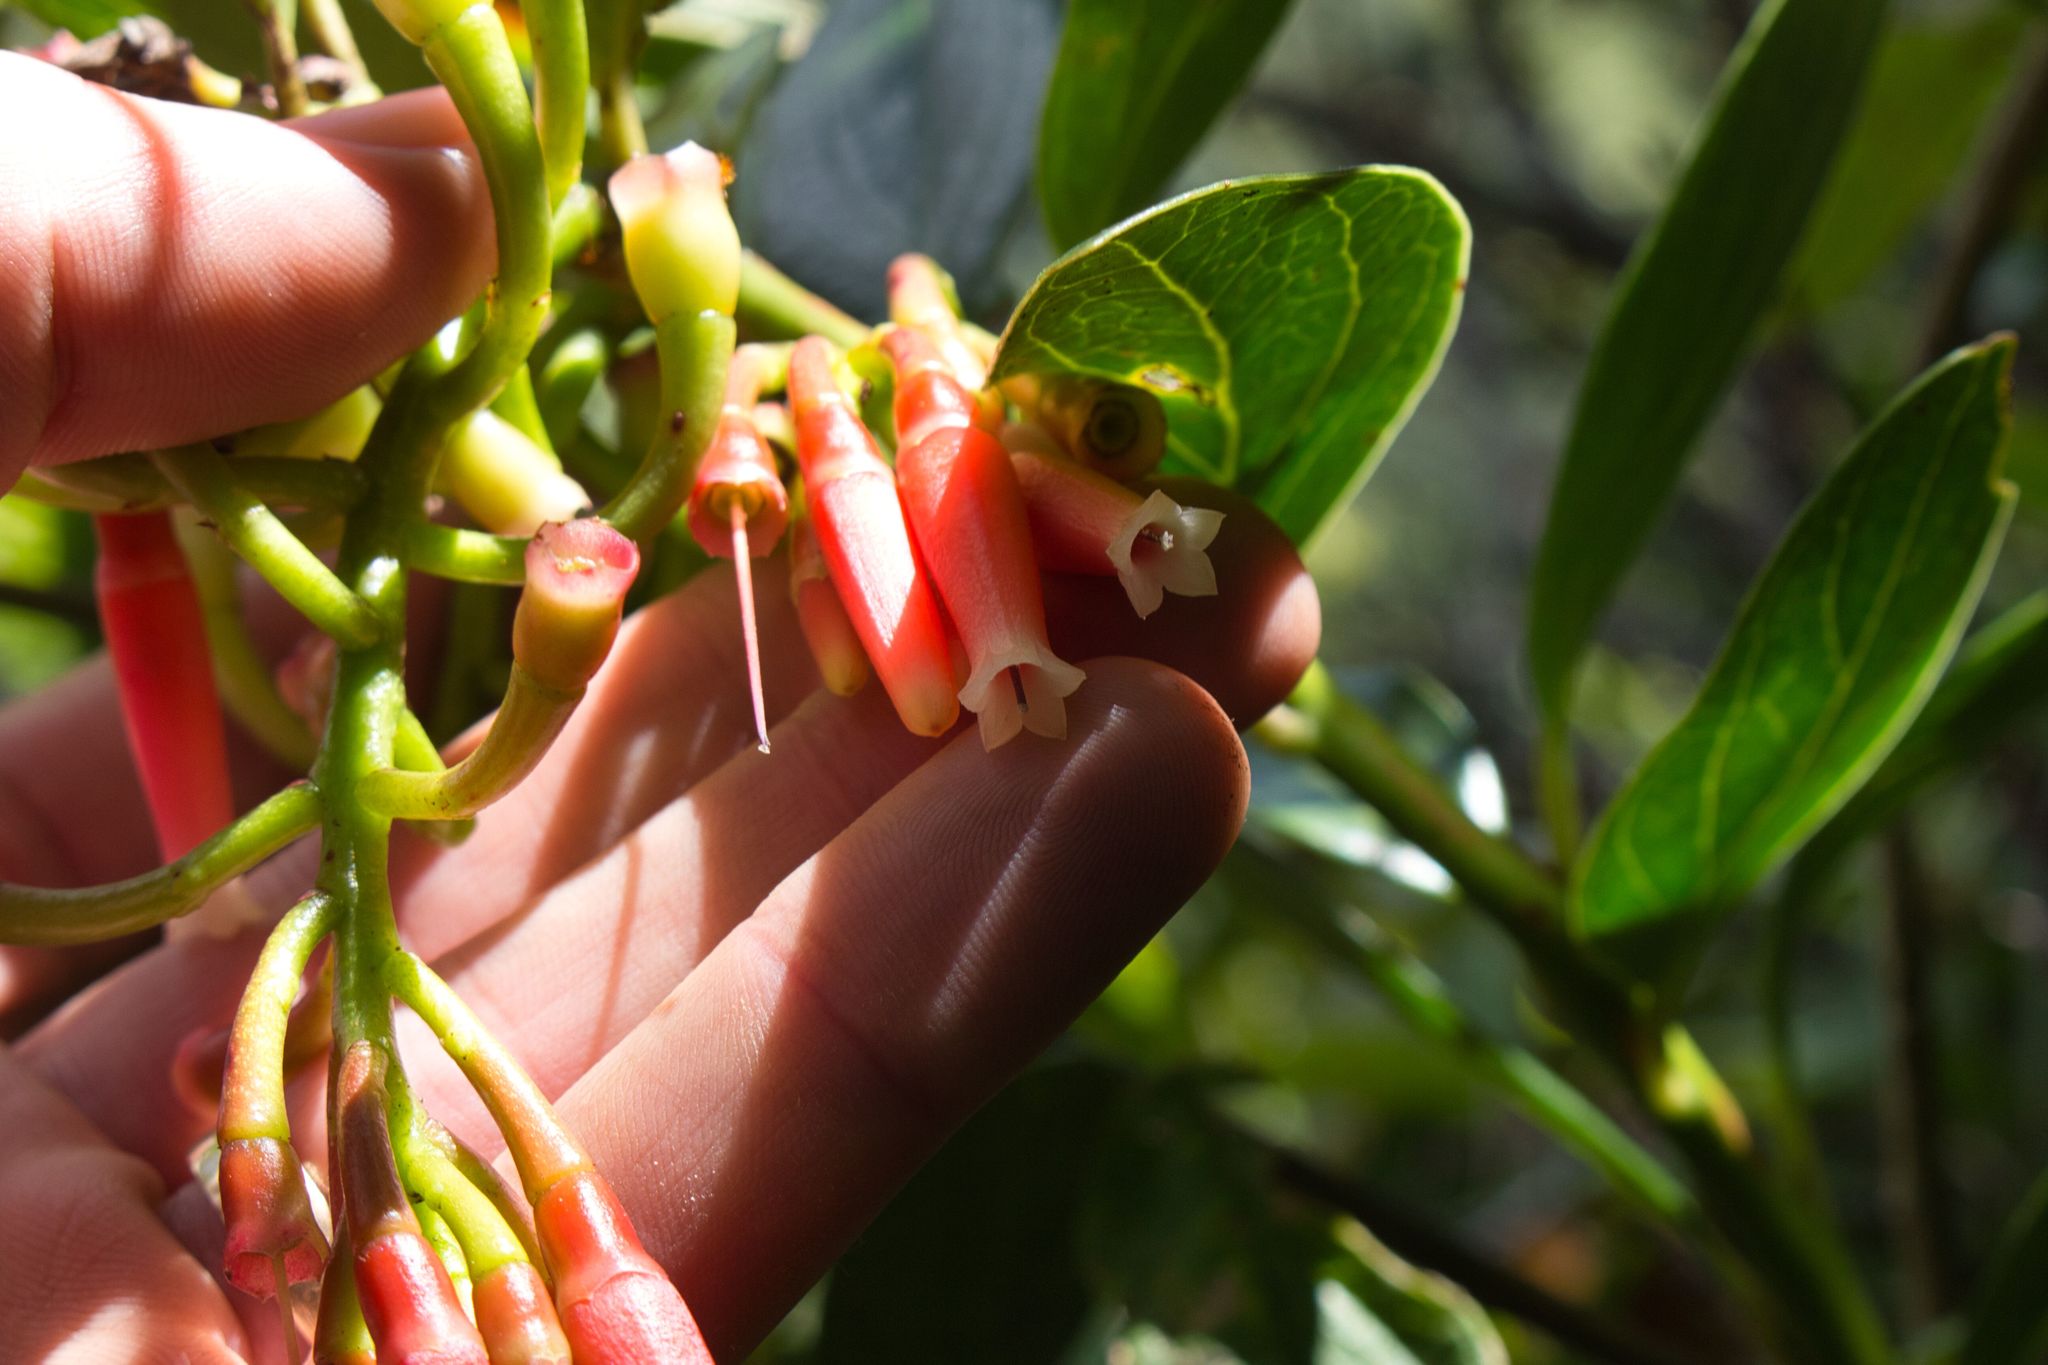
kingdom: Plantae
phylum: Tracheophyta
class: Magnoliopsida
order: Ericales
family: Ericaceae
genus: Macleania
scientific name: Macleania rupestris
